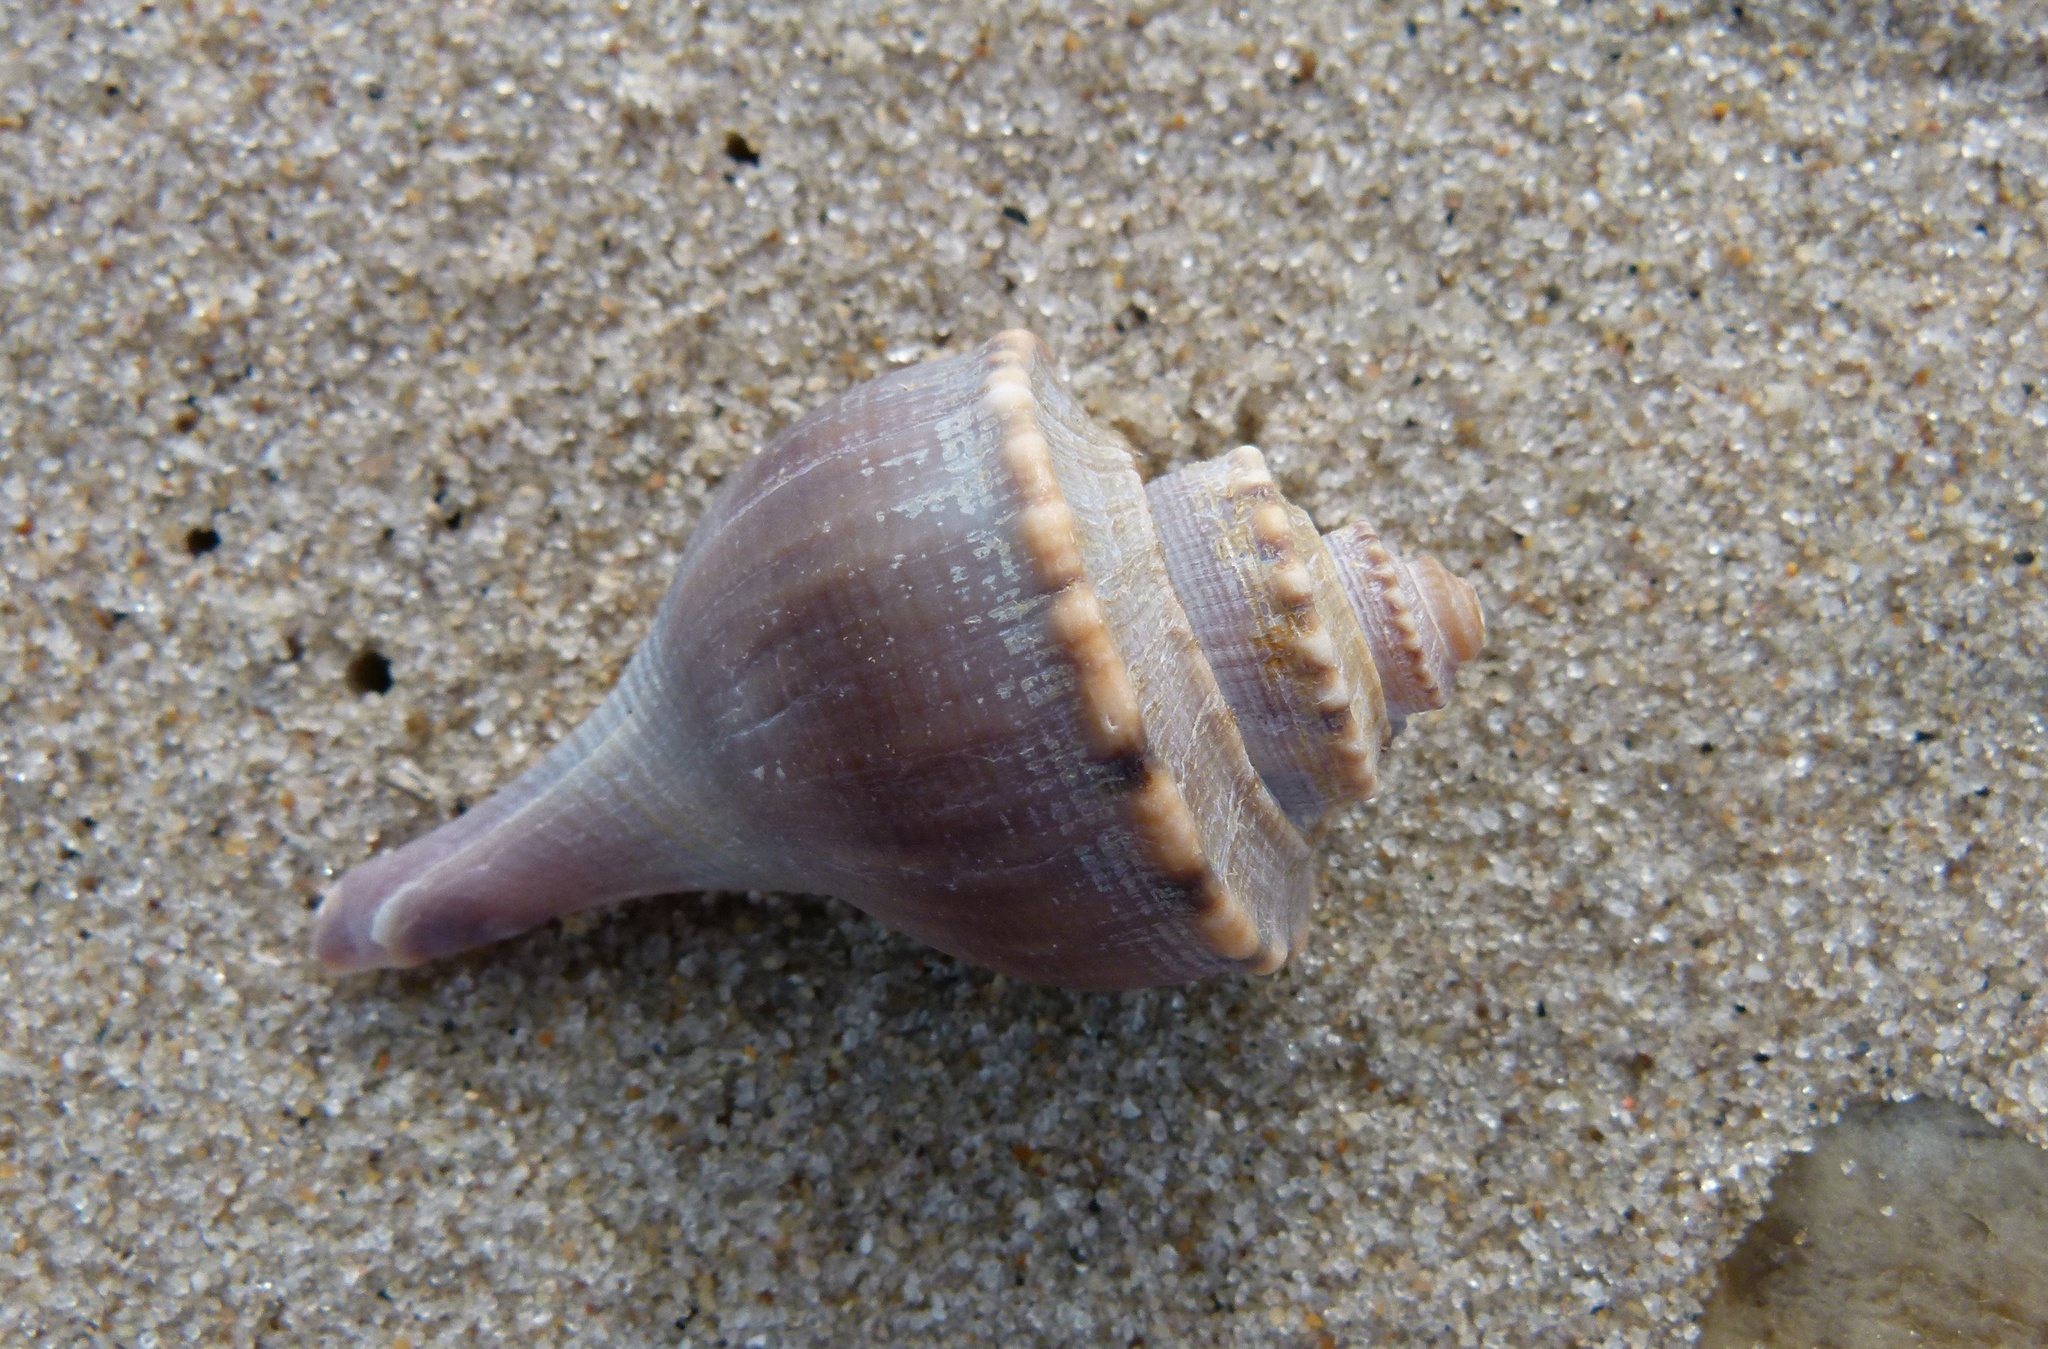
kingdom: Animalia
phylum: Mollusca
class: Gastropoda
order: Neogastropoda
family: Busyconidae
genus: Busycotypus
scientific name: Busycotypus canaliculatus
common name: Channeled whelk
